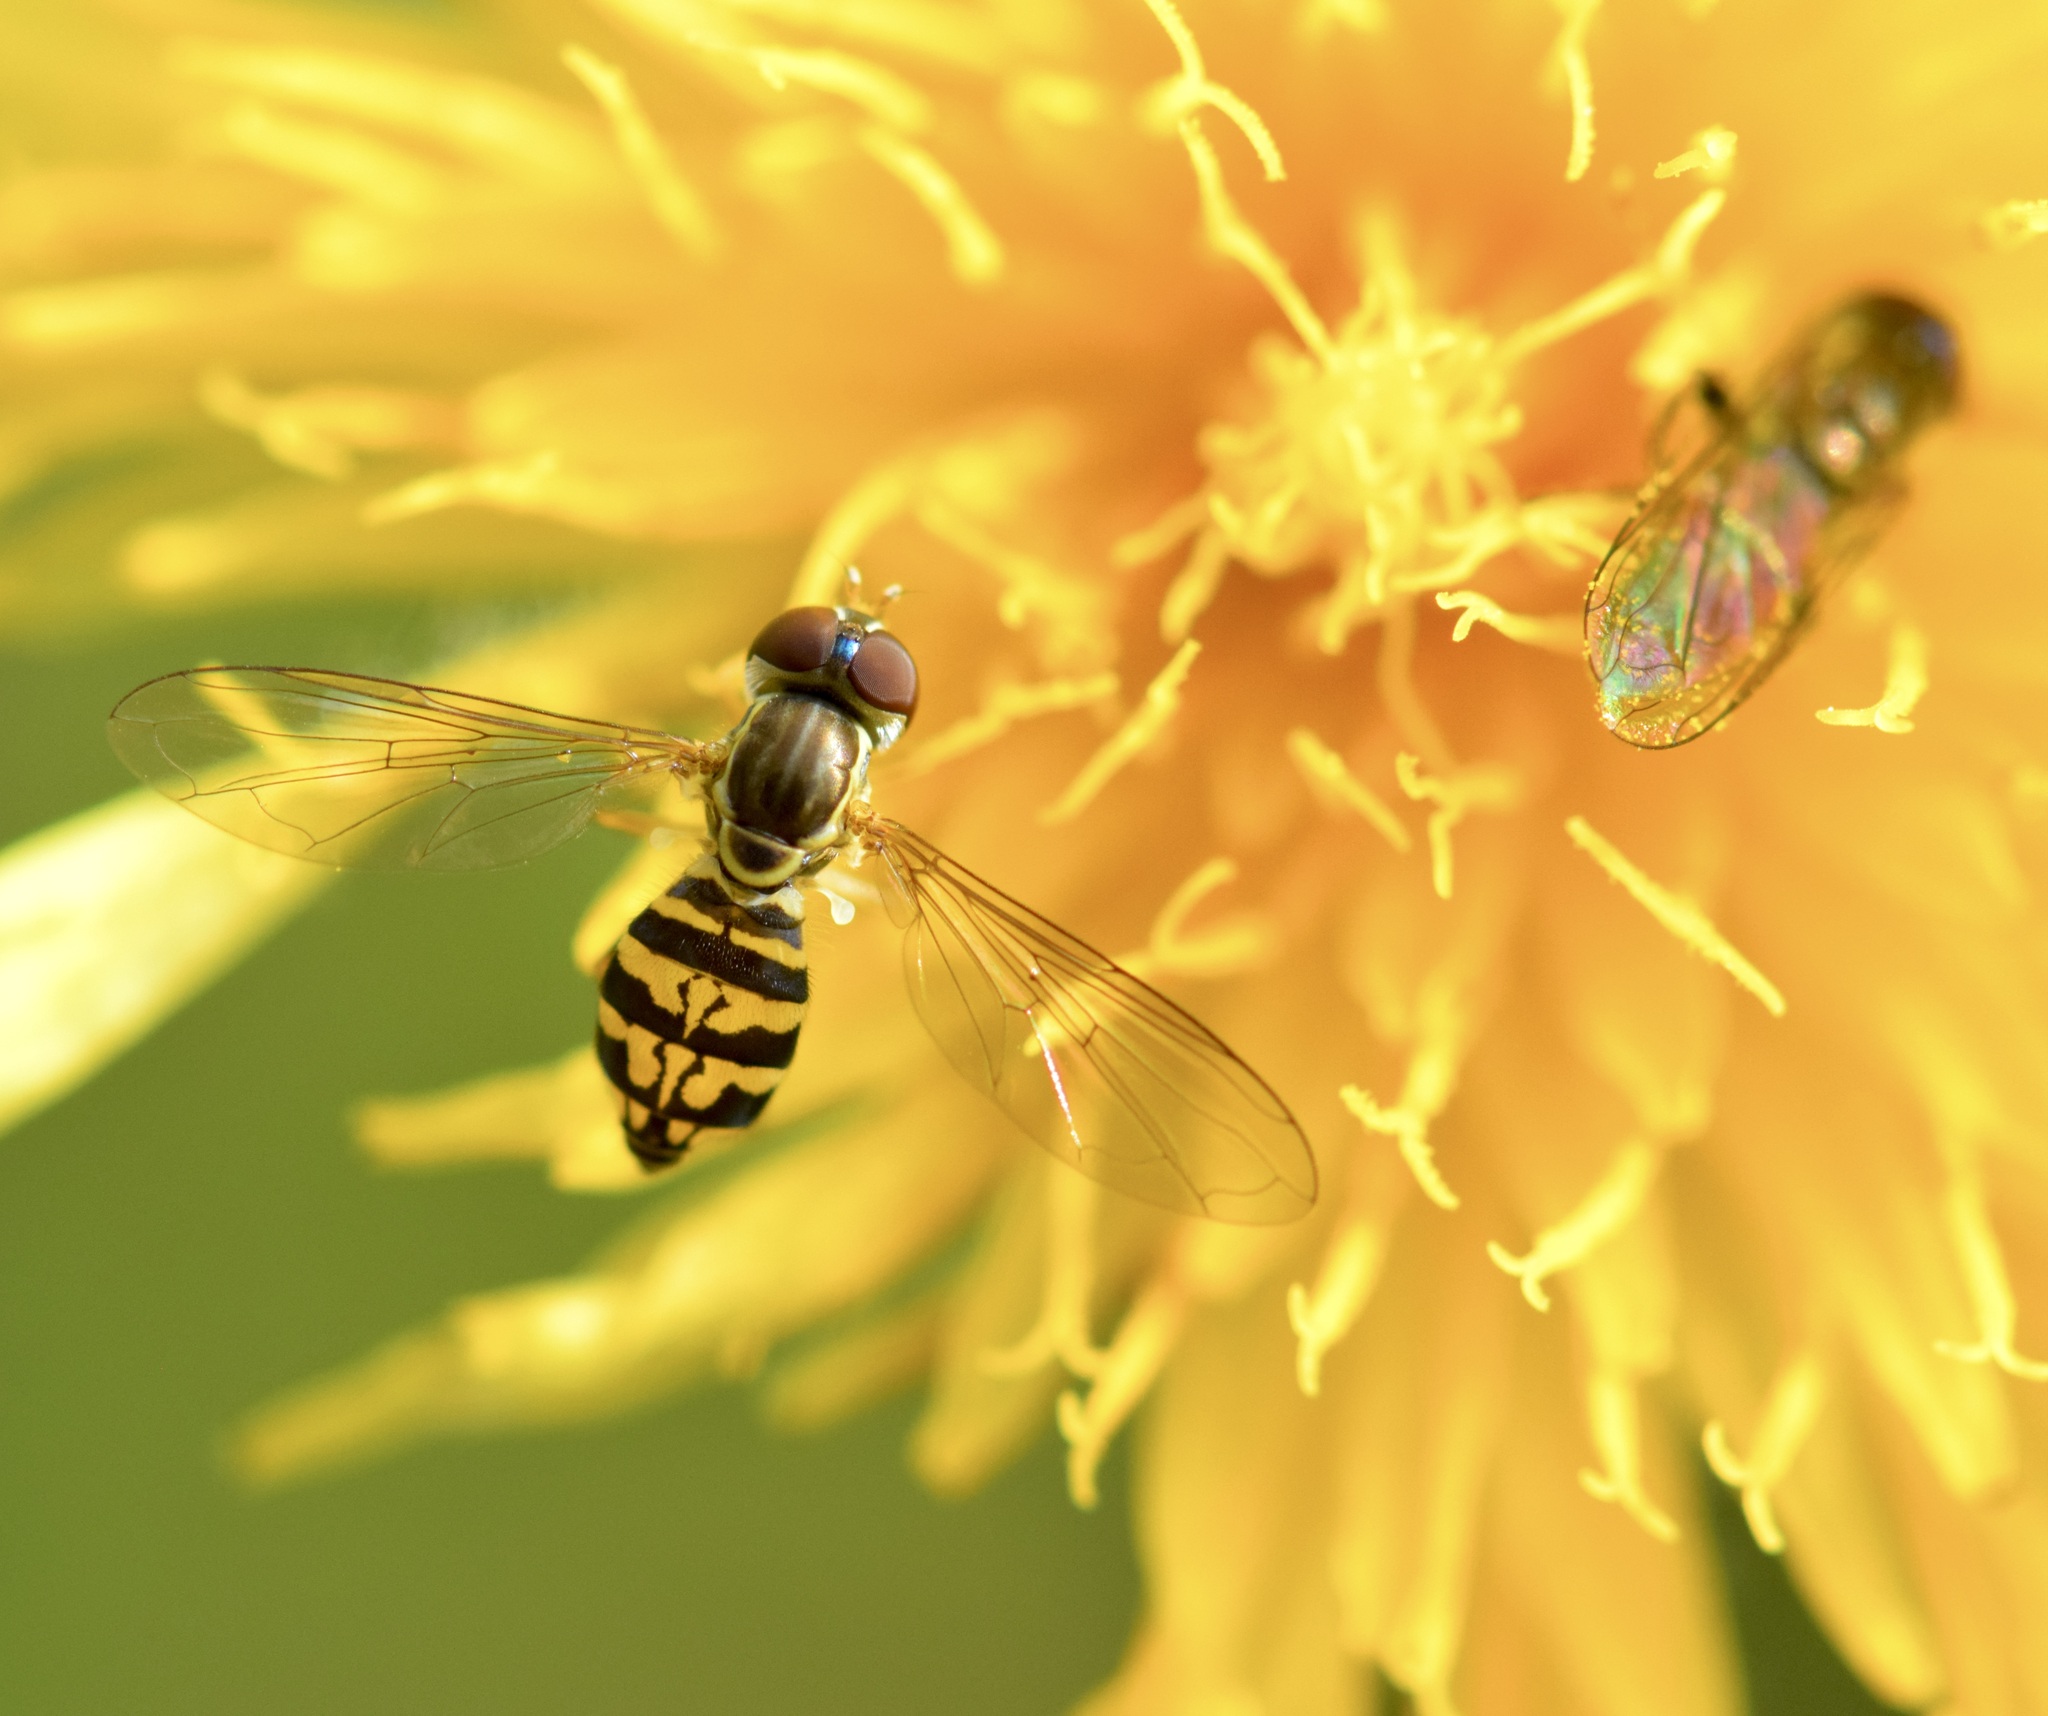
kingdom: Animalia
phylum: Arthropoda
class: Insecta
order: Diptera
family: Syrphidae
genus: Toxomerus
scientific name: Toxomerus geminatus
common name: Eastern calligrapher
